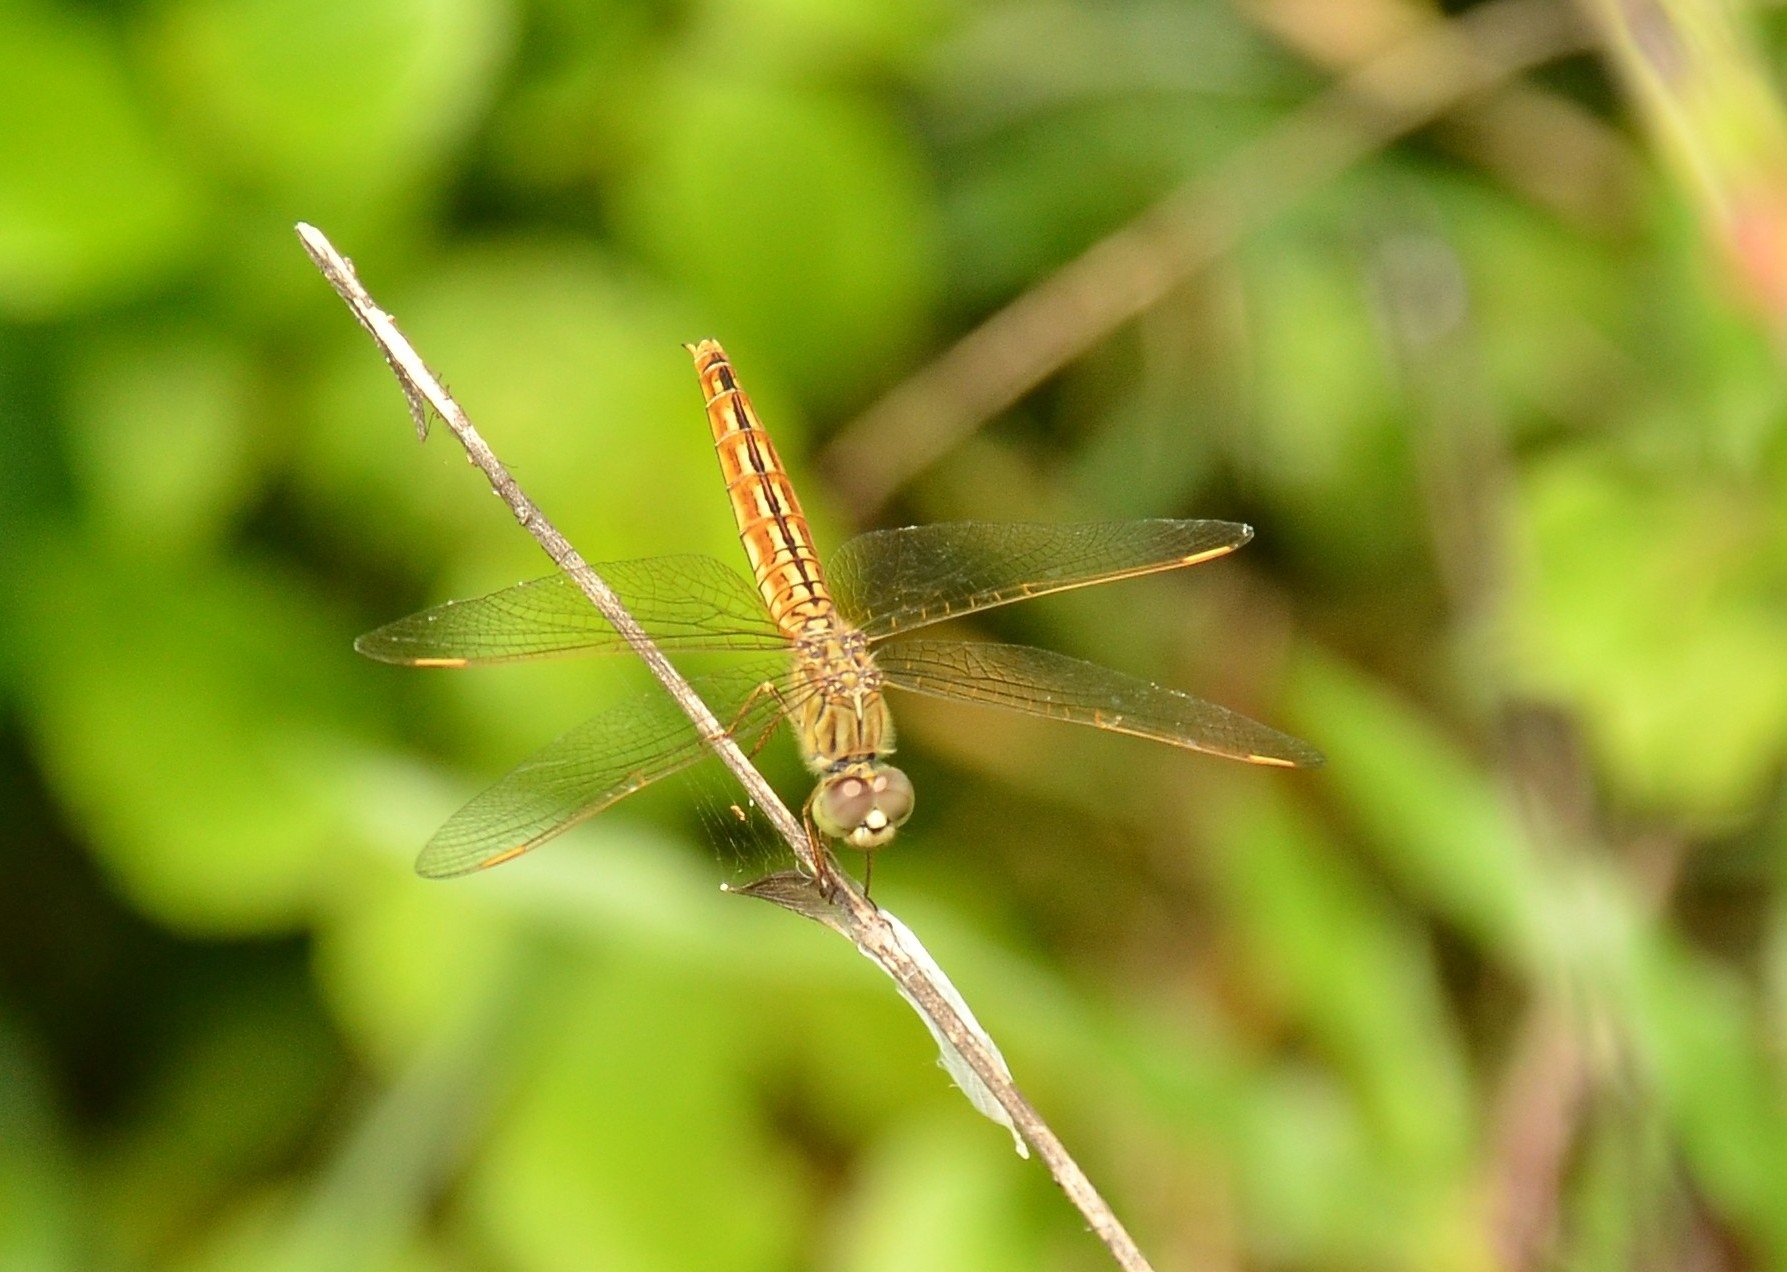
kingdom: Animalia
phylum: Arthropoda
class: Insecta
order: Odonata
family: Libellulidae
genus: Brachythemis
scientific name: Brachythemis contaminata
